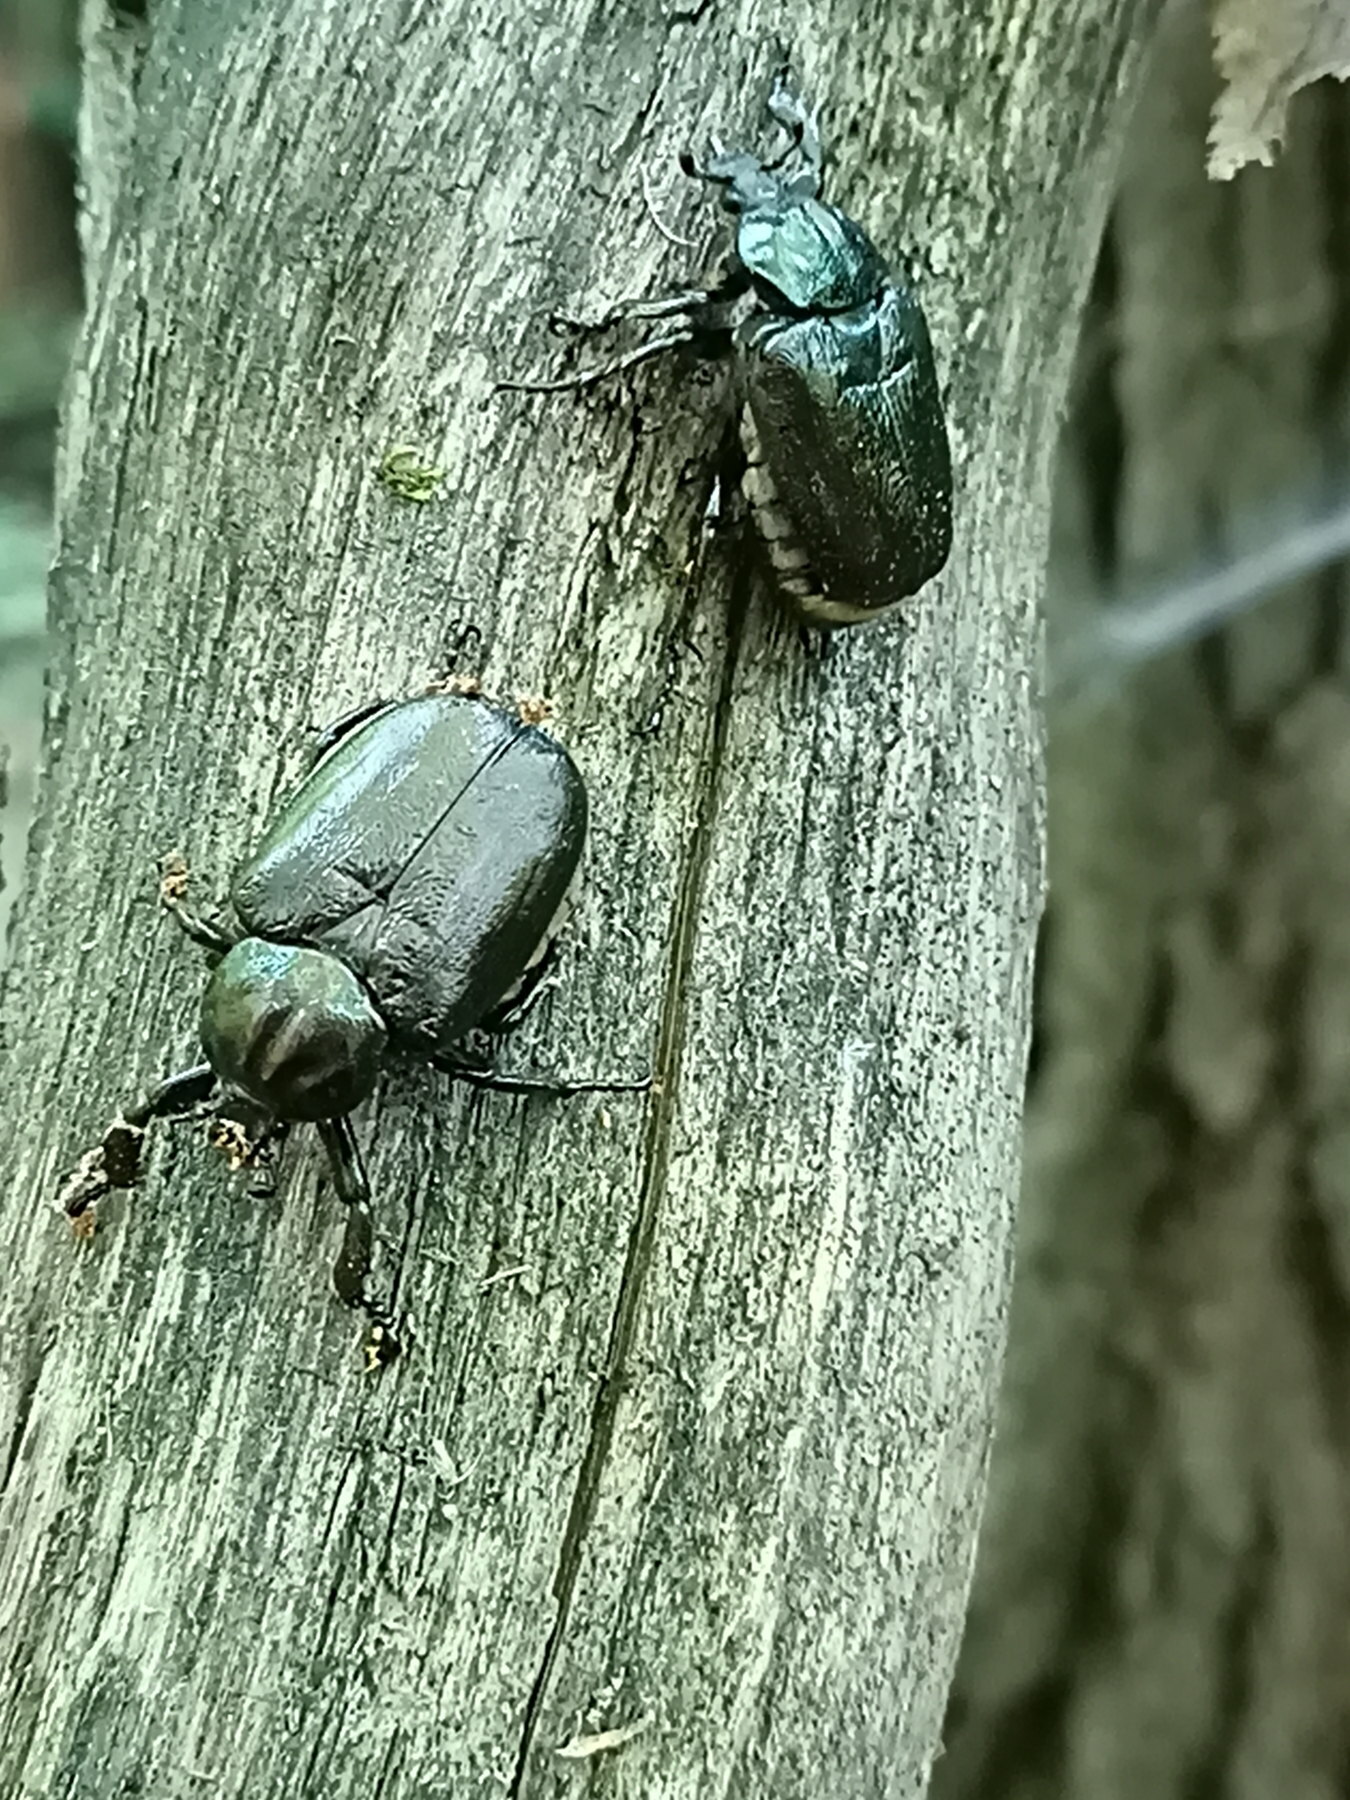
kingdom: Animalia
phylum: Arthropoda
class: Insecta
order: Coleoptera
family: Scarabaeidae
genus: Osmoderma
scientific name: Osmoderma barnabita
